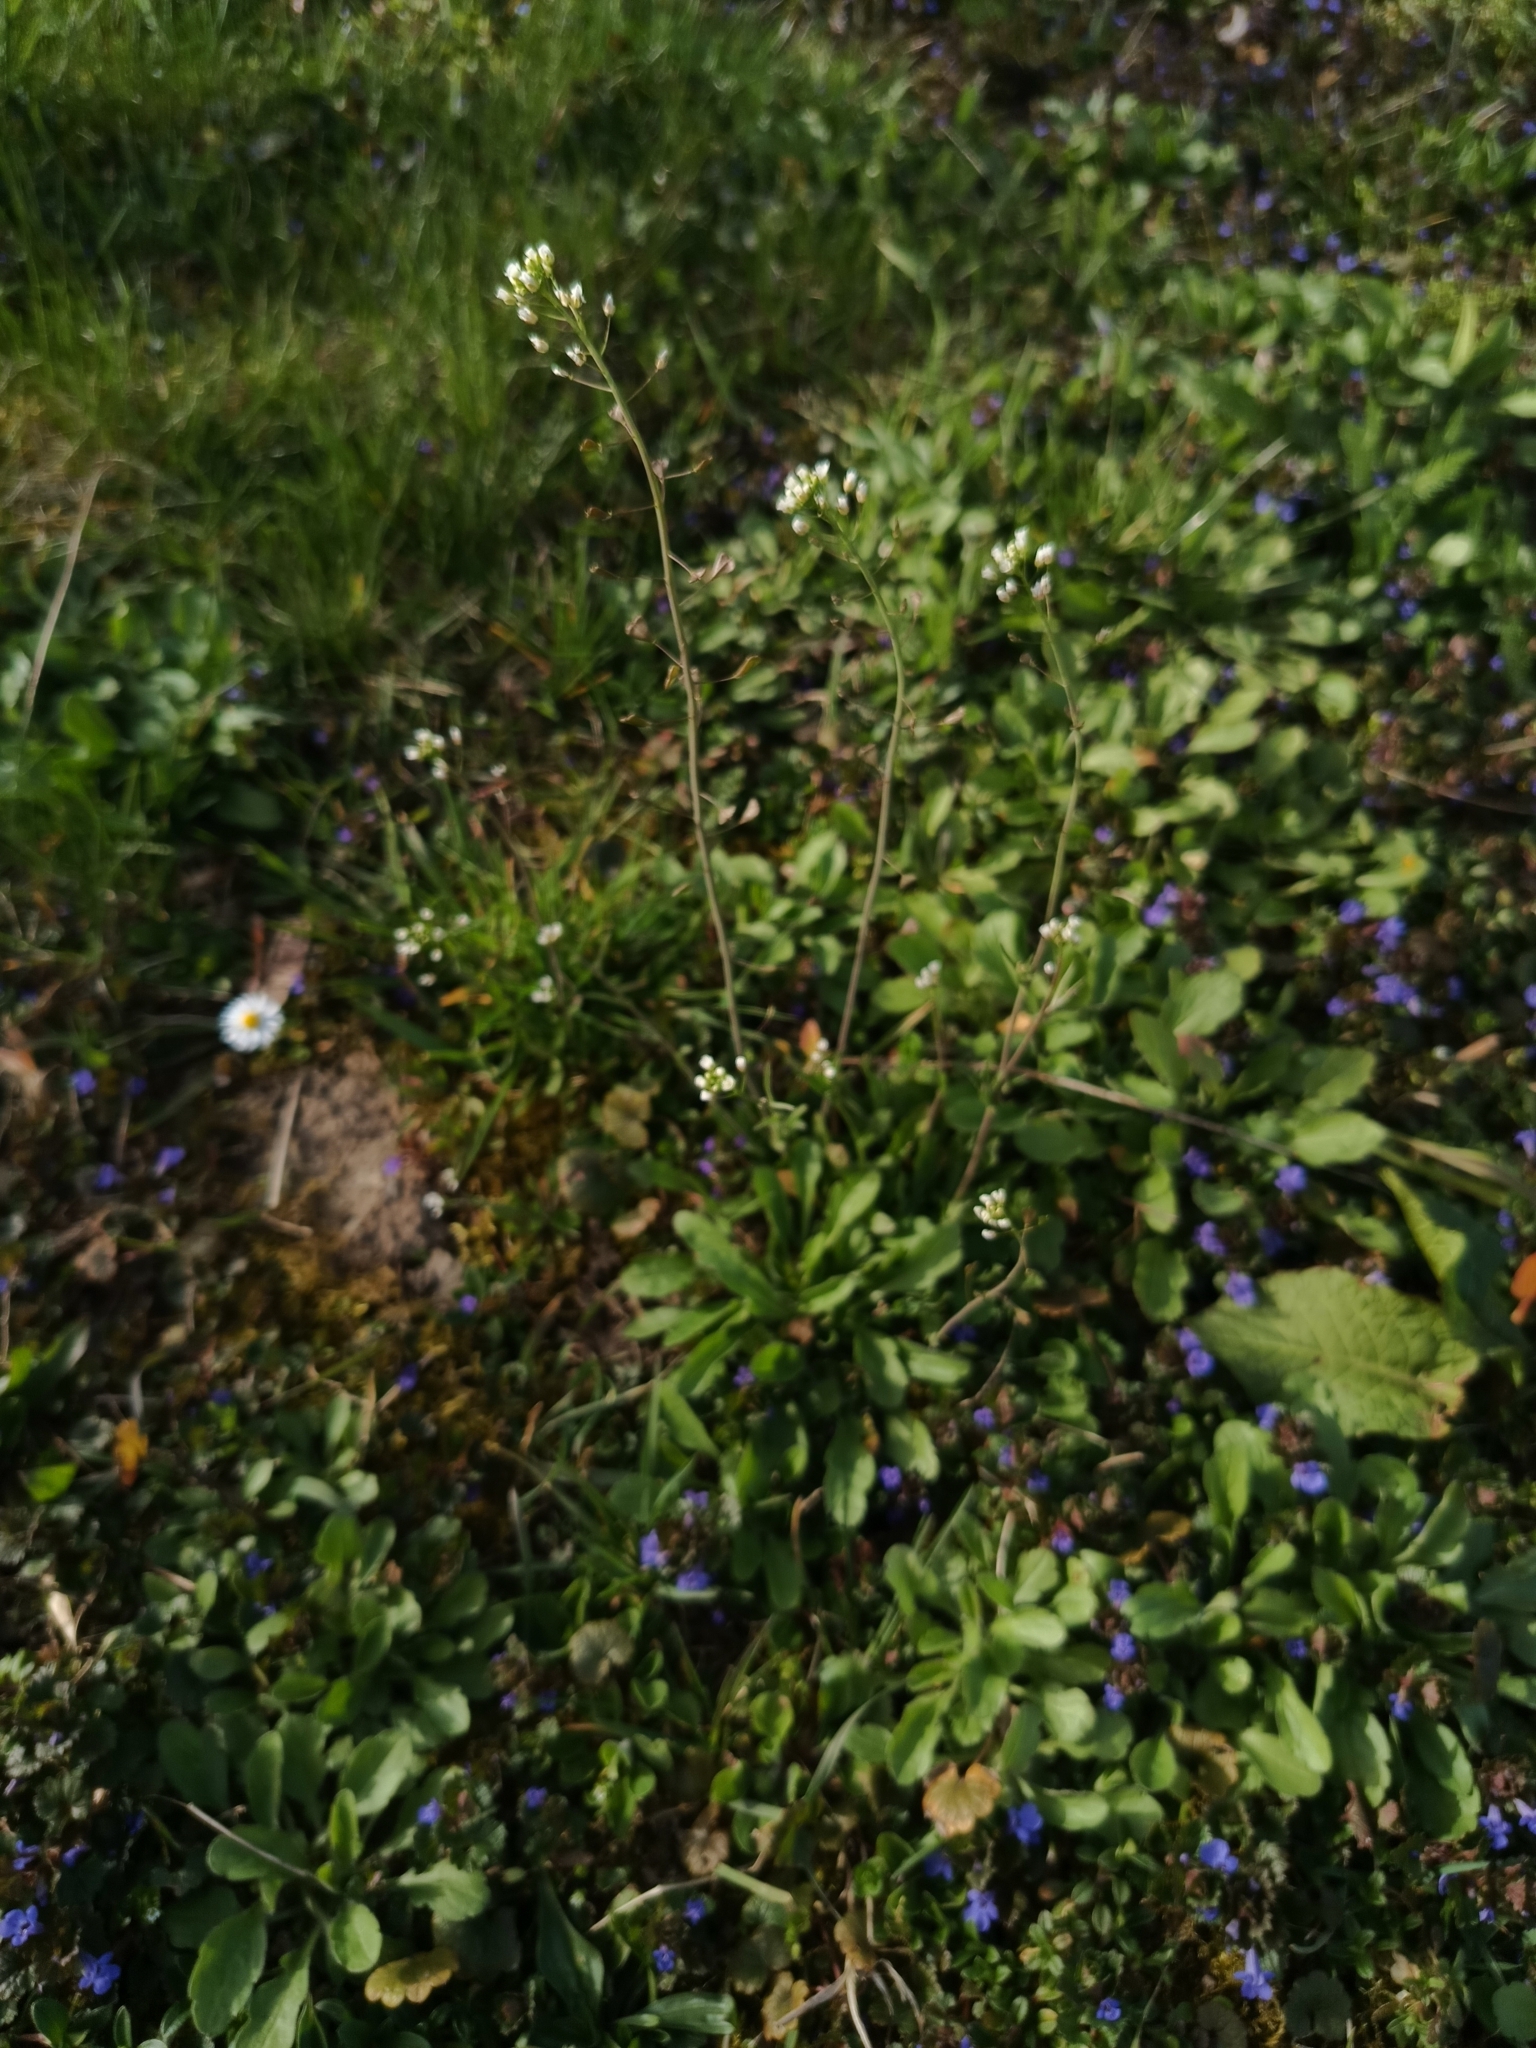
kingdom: Plantae
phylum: Tracheophyta
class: Magnoliopsida
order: Brassicales
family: Brassicaceae
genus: Capsella
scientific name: Capsella bursa-pastoris
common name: Shepherd's purse
